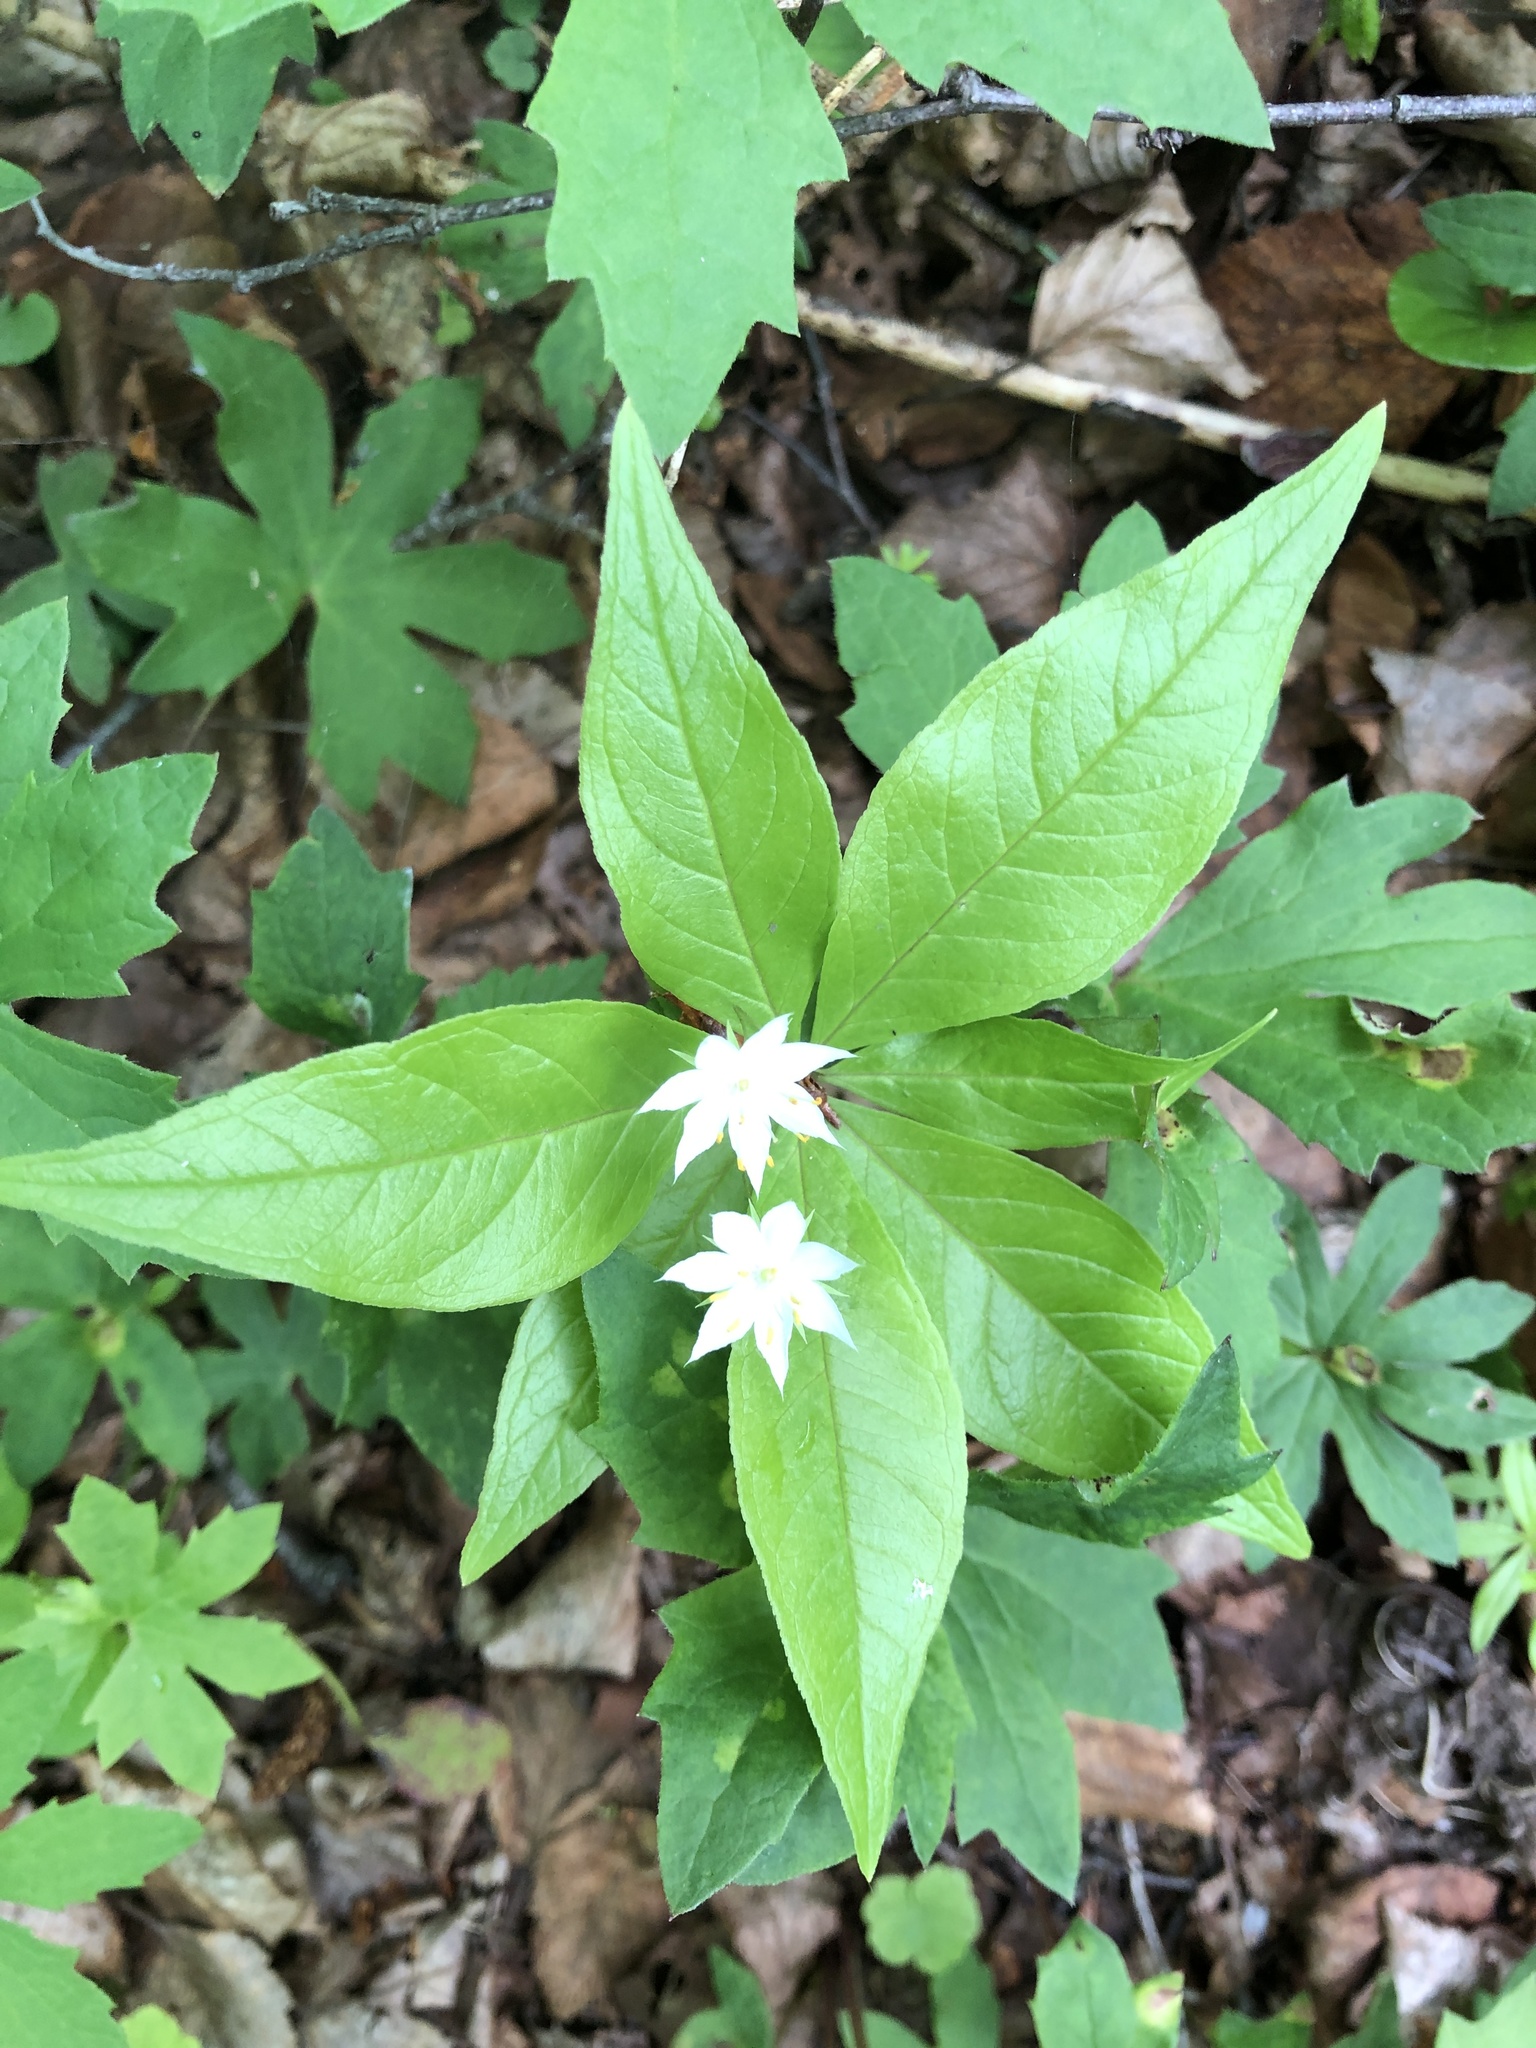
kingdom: Plantae
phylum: Tracheophyta
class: Magnoliopsida
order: Ericales
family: Primulaceae
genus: Lysimachia
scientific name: Lysimachia borealis
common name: American starflower
